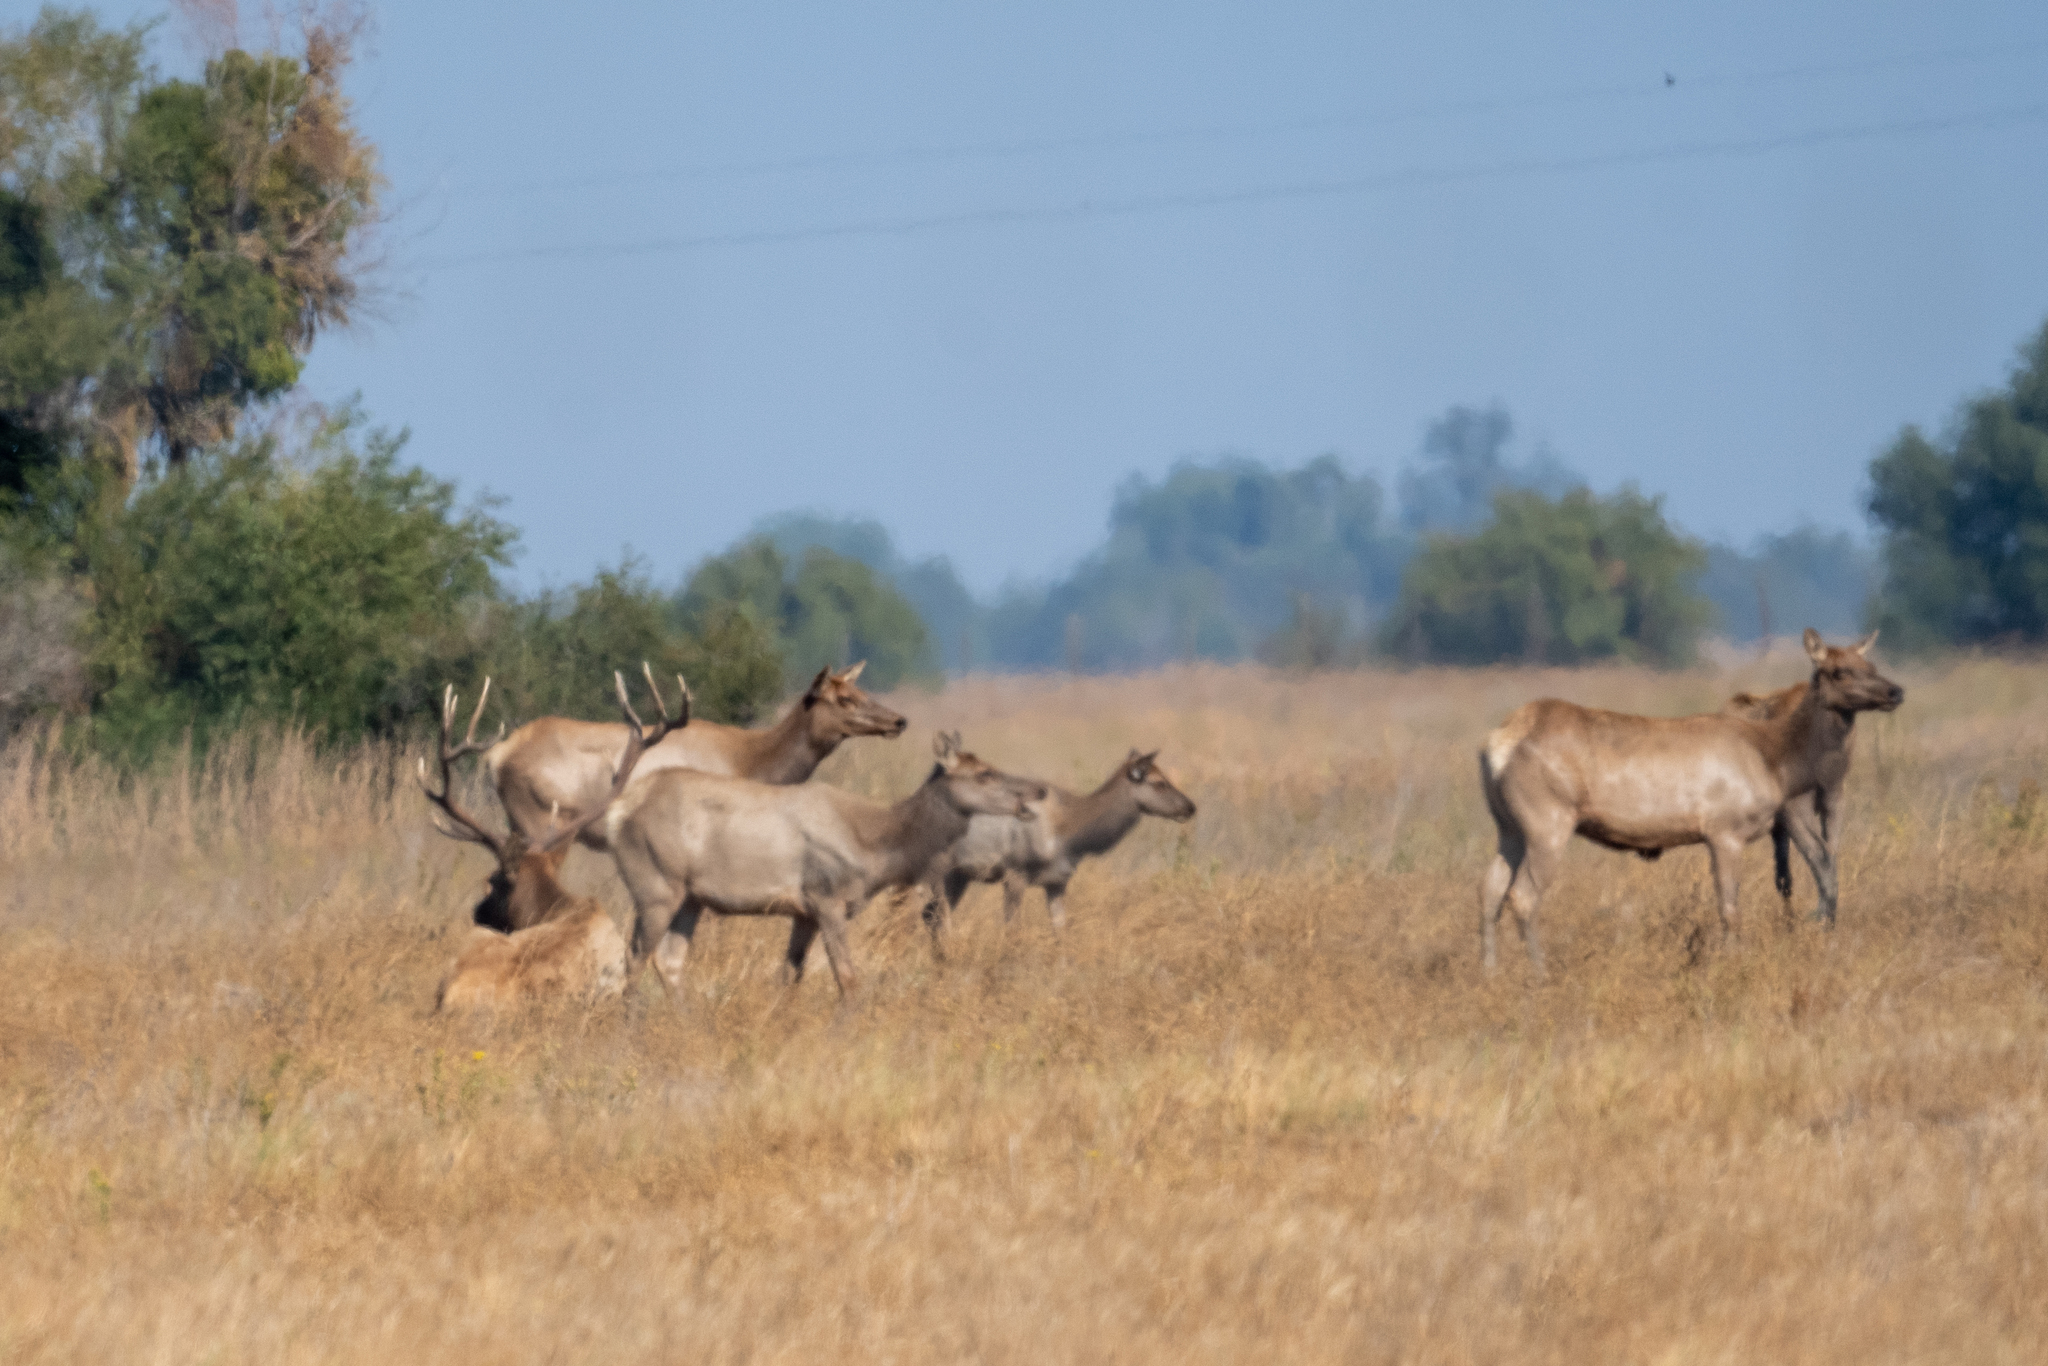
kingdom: Animalia
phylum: Chordata
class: Mammalia
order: Artiodactyla
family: Cervidae
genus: Cervus
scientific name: Cervus elaphus
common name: Red deer
